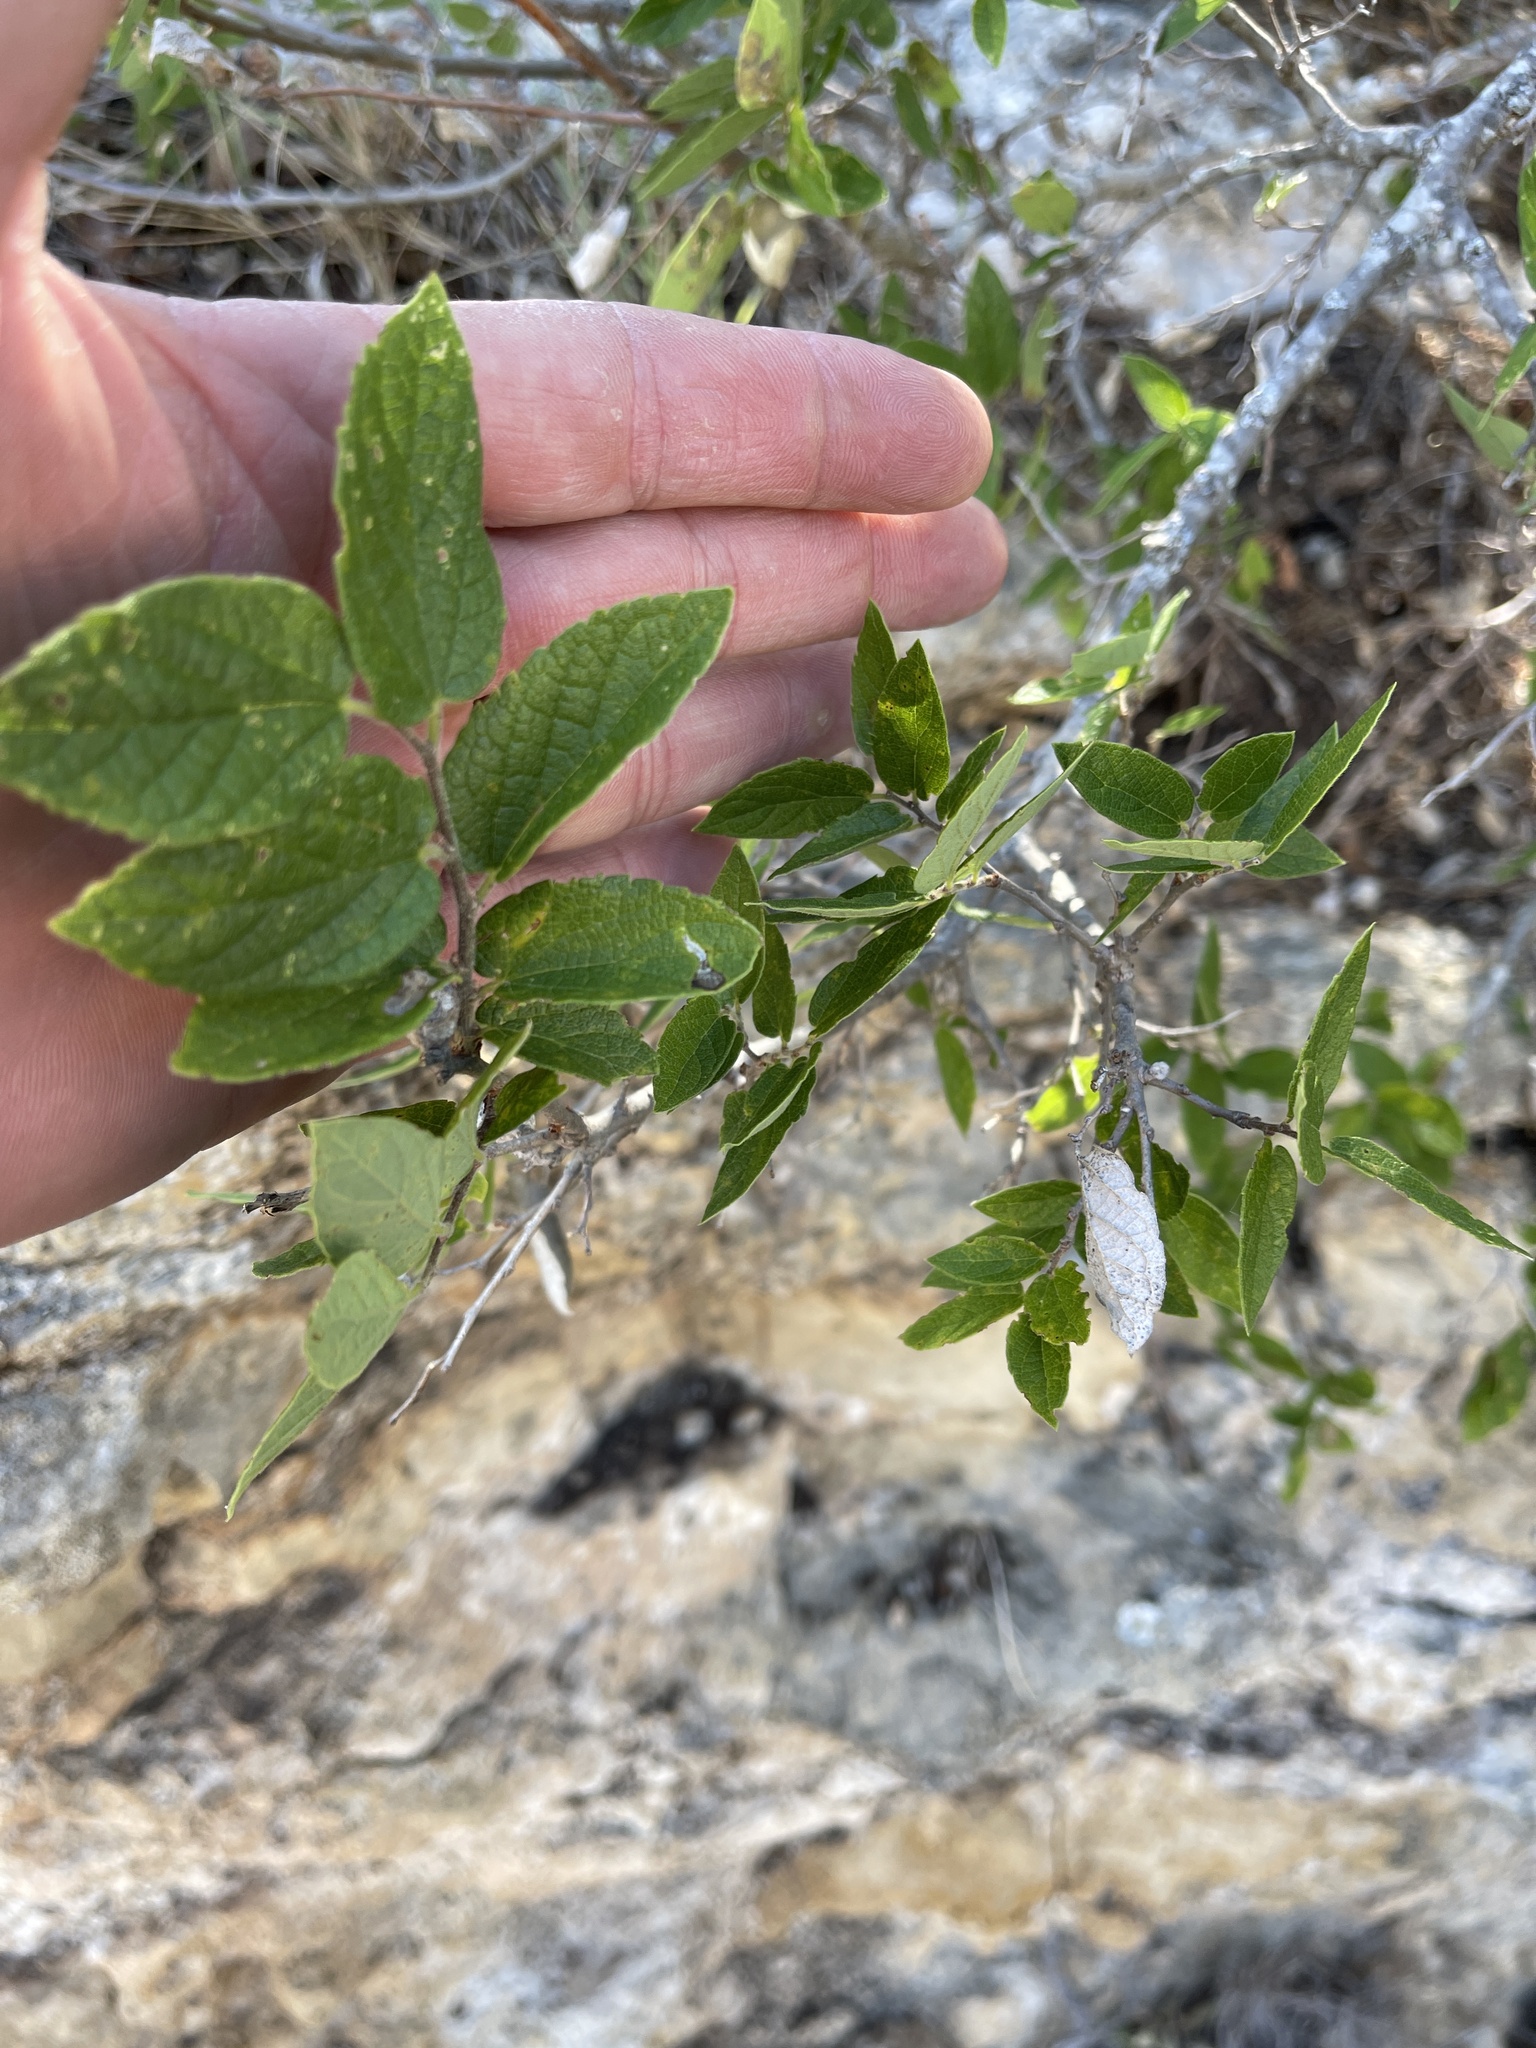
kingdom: Plantae
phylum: Tracheophyta
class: Magnoliopsida
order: Rosales
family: Cannabaceae
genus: Celtis
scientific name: Celtis reticulata
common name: Netleaf hackberry
